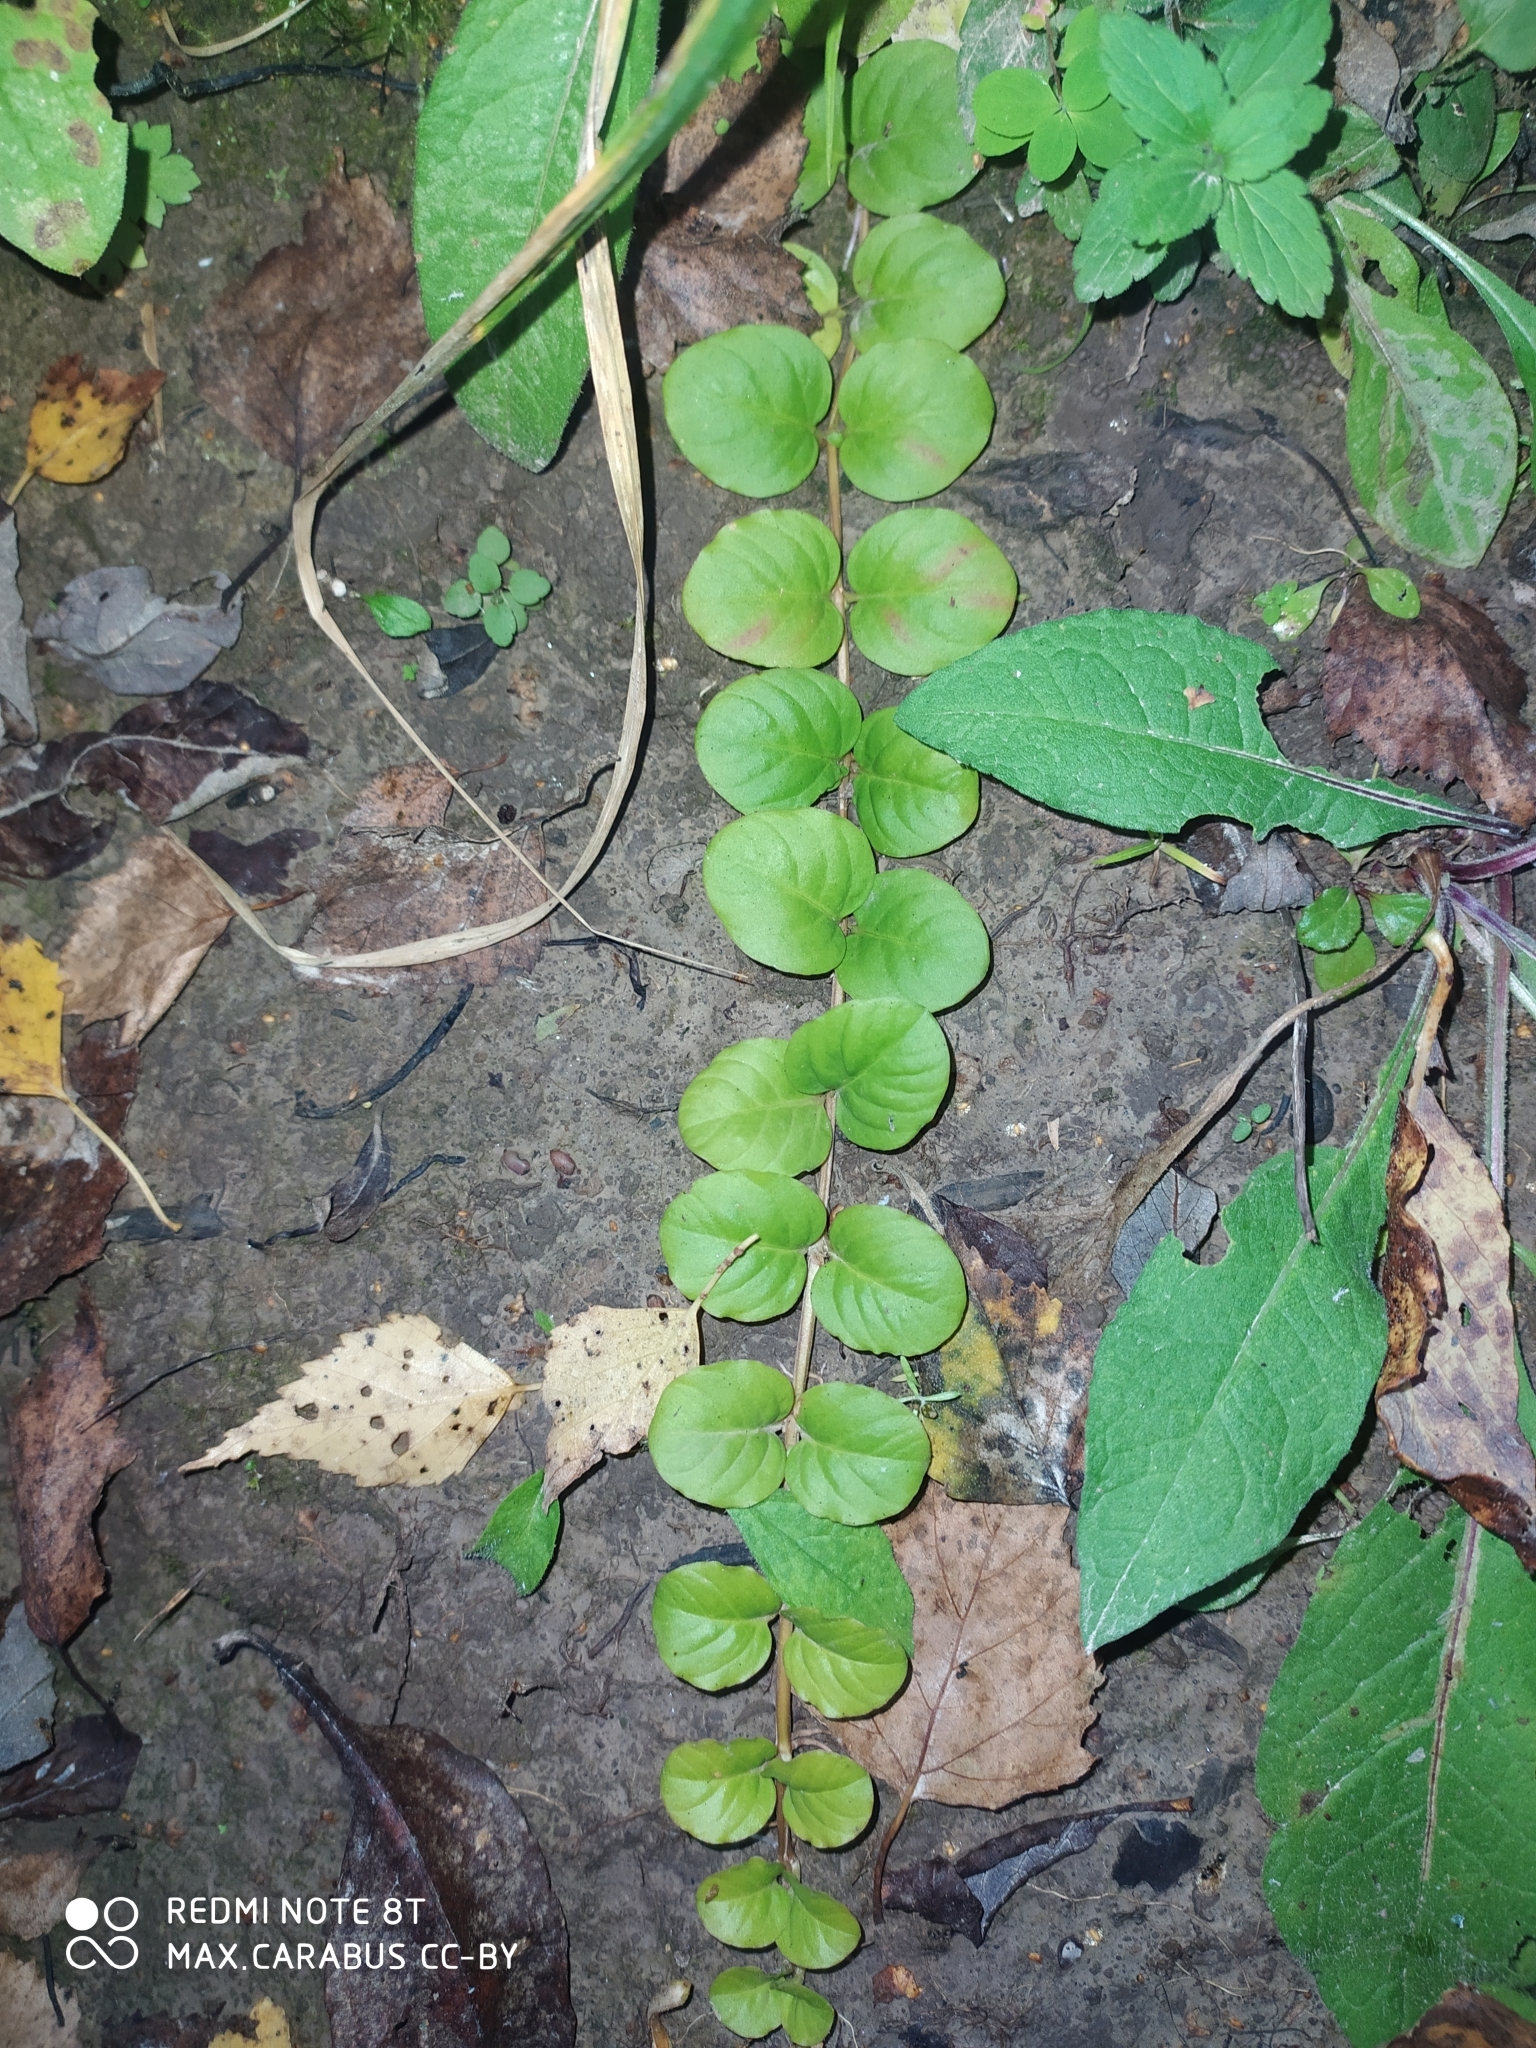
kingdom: Plantae
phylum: Tracheophyta
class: Magnoliopsida
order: Ericales
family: Primulaceae
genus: Lysimachia
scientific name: Lysimachia nummularia
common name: Moneywort
